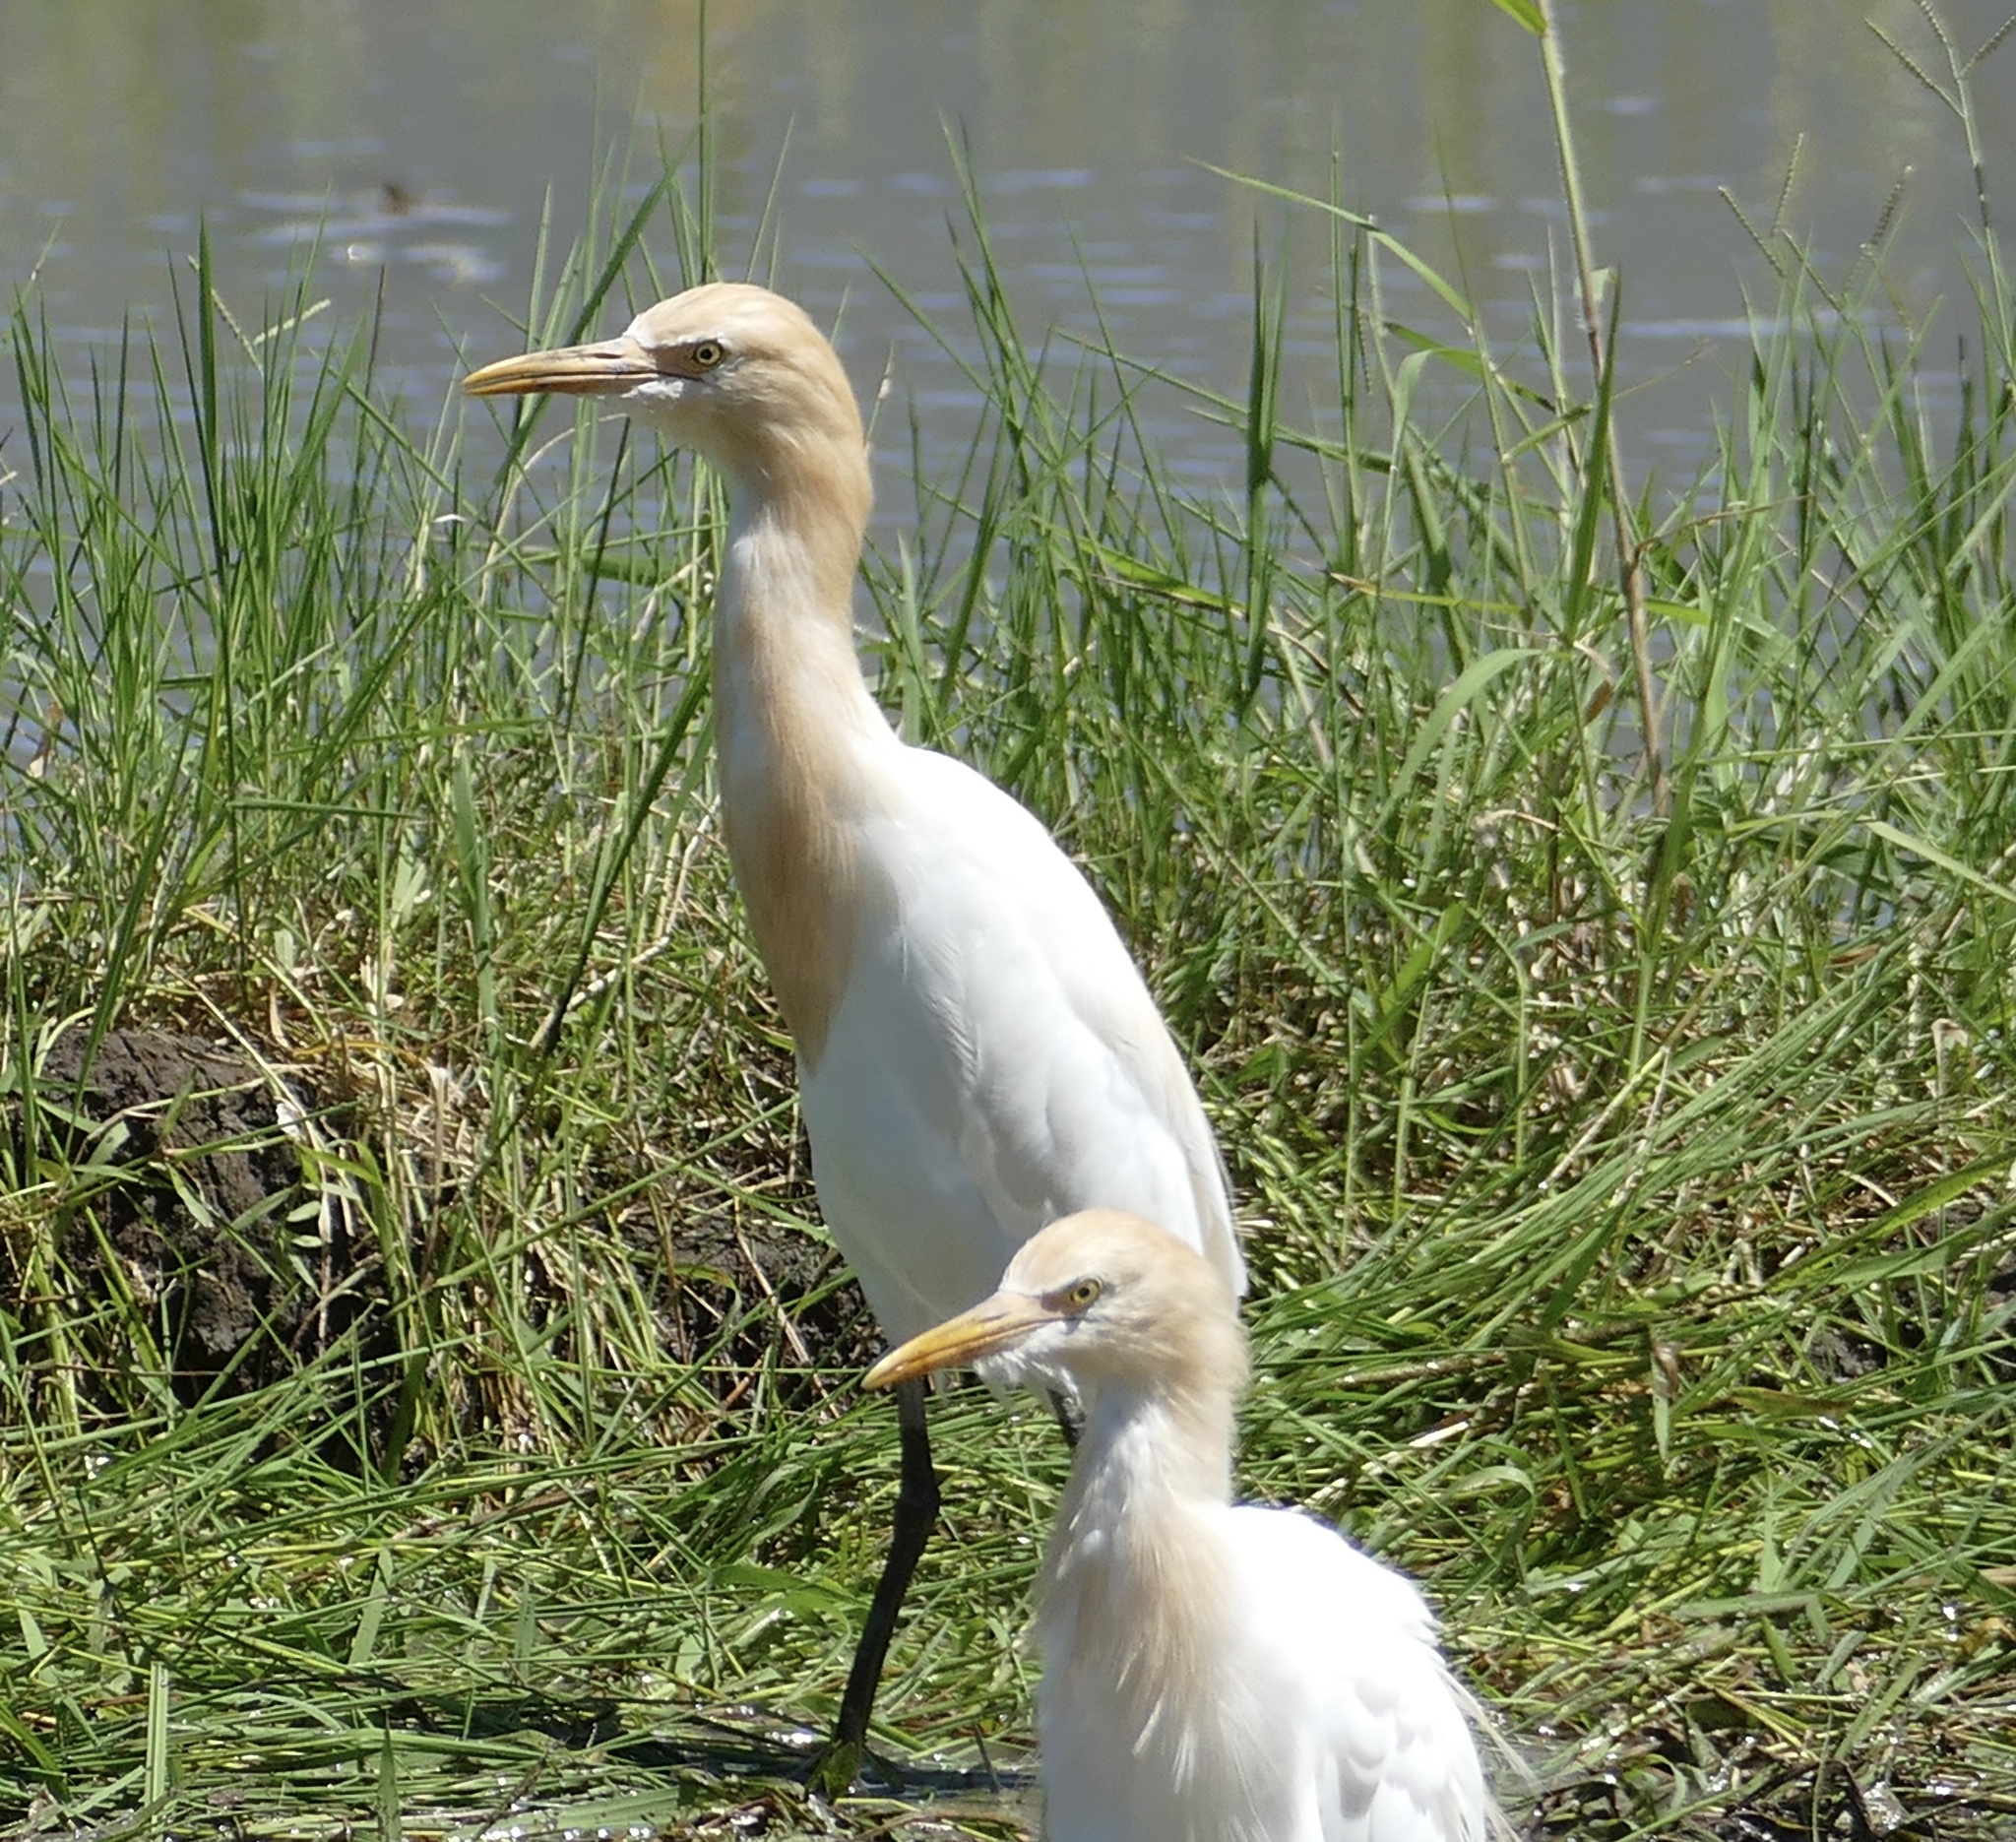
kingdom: Animalia
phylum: Chordata
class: Aves
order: Pelecaniformes
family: Ardeidae
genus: Bubulcus
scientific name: Bubulcus coromandus
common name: Eastern cattle egret
